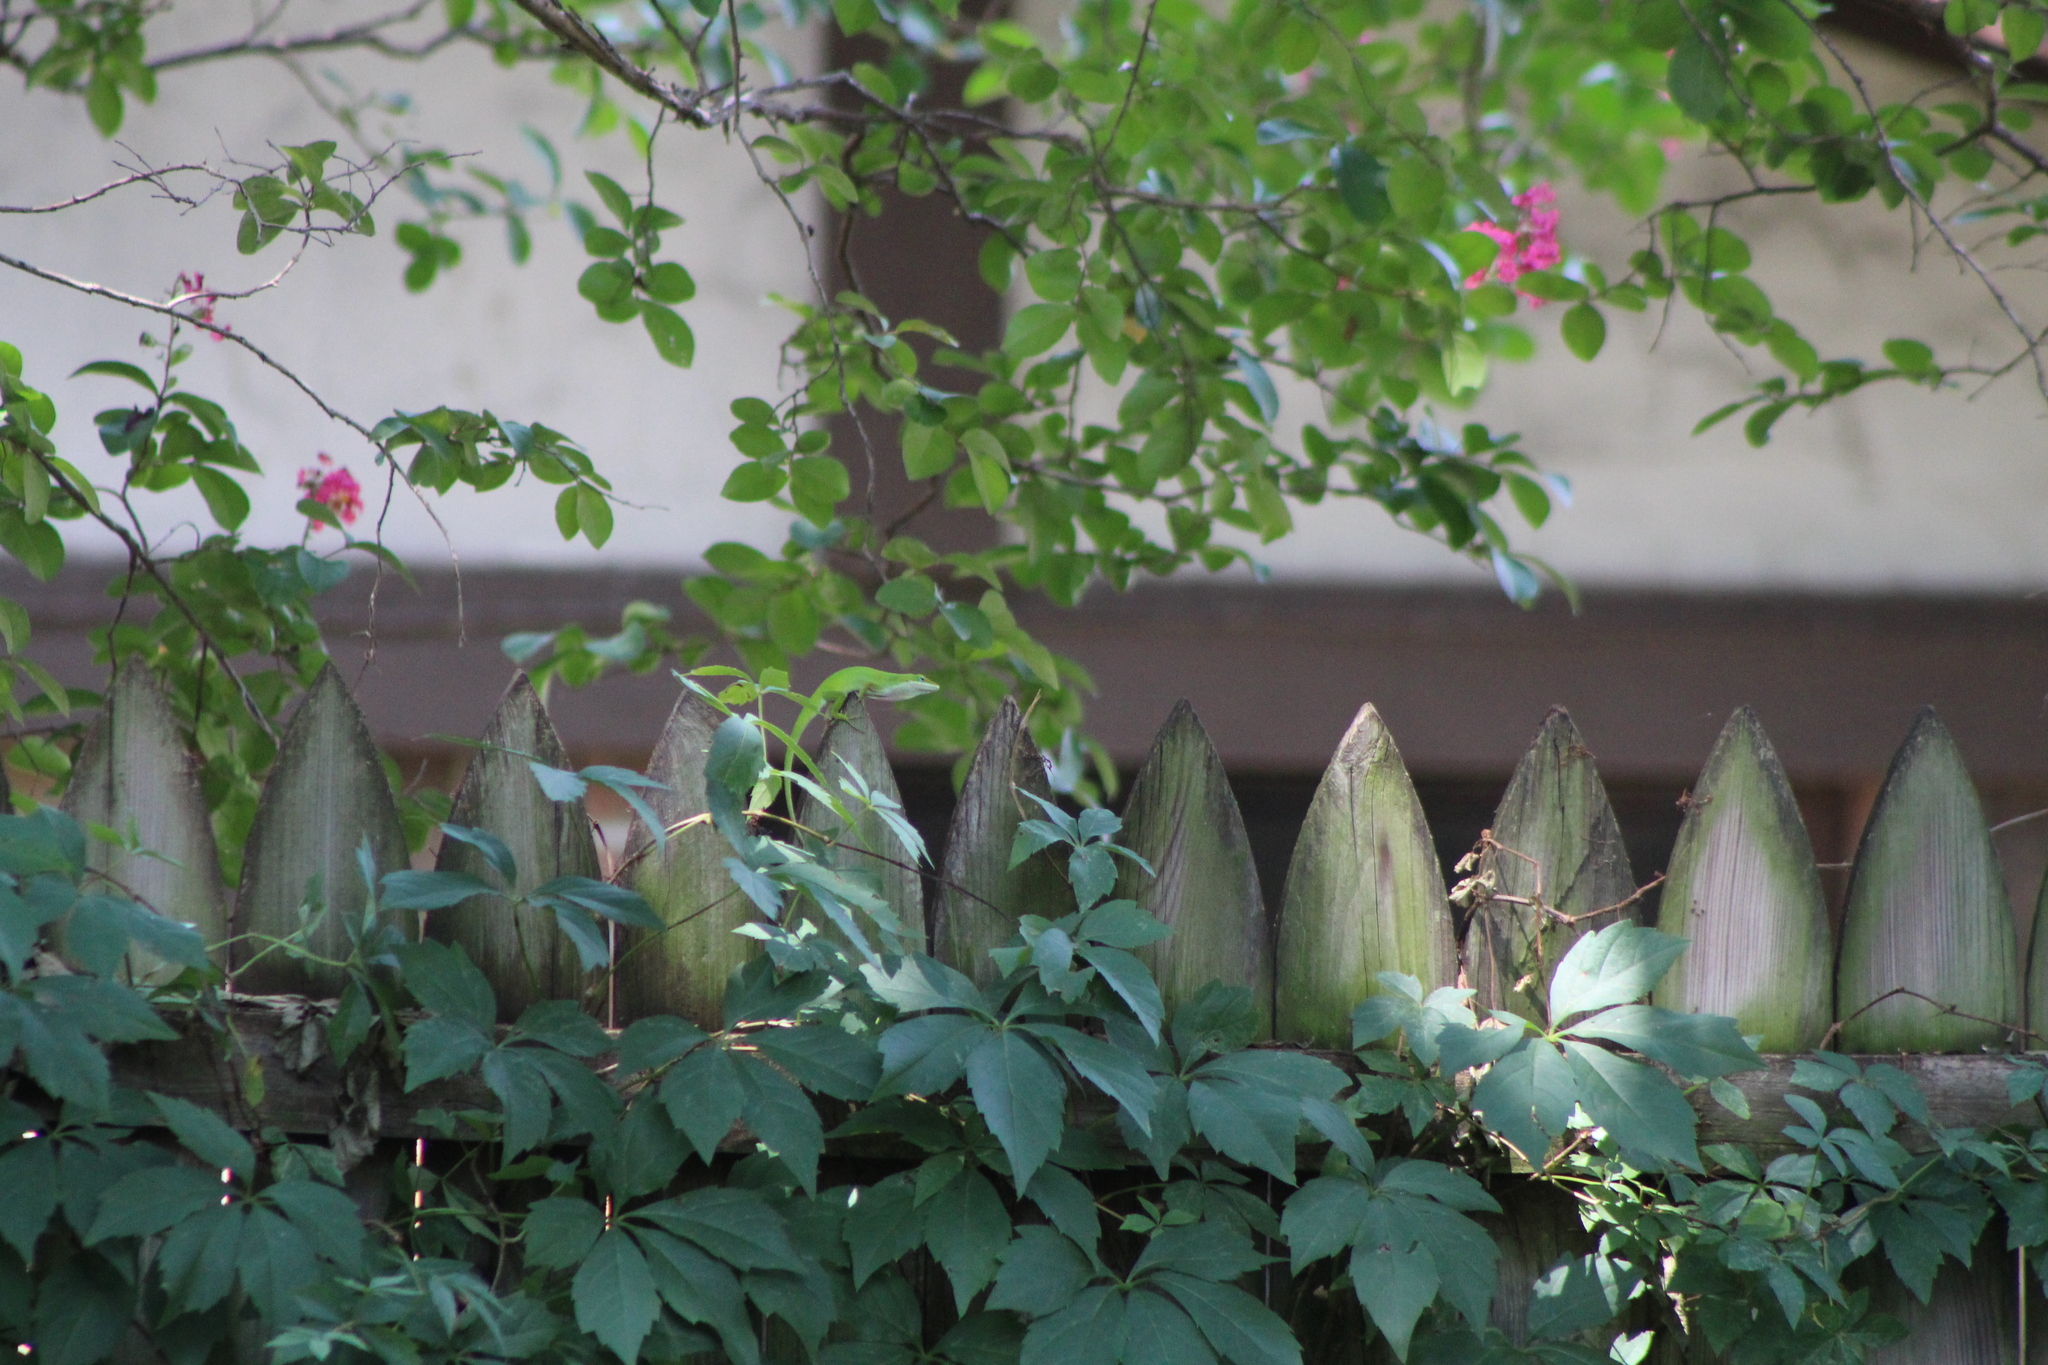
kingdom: Animalia
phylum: Chordata
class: Squamata
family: Dactyloidae
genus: Anolis
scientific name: Anolis carolinensis
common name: Green anole
